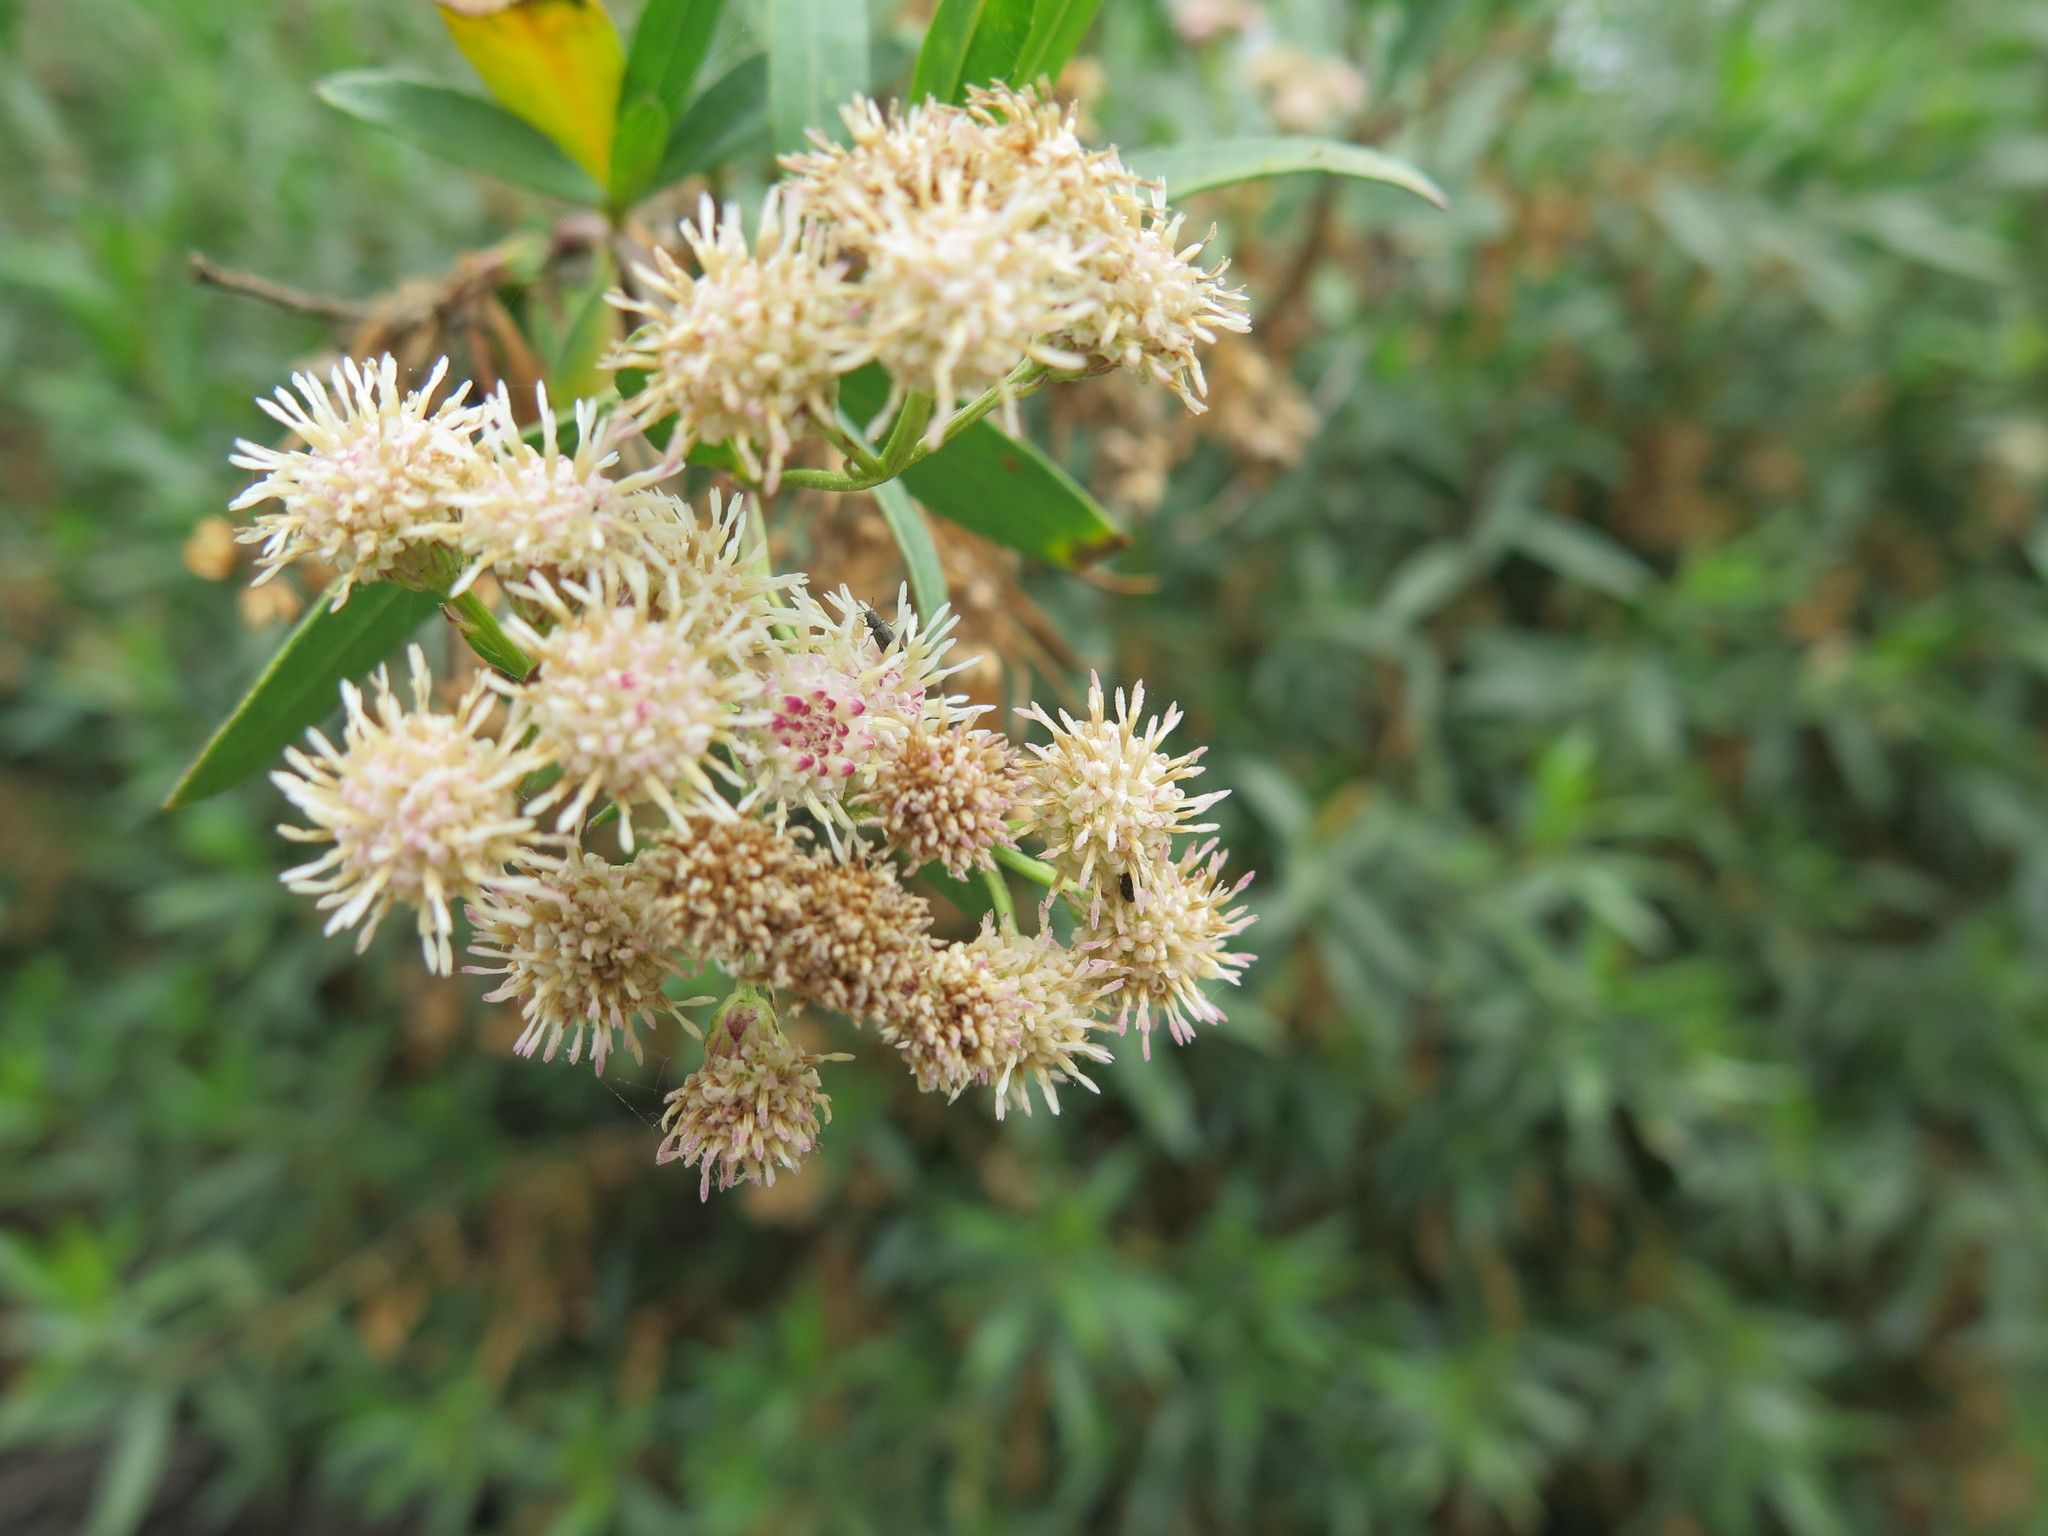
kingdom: Plantae
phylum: Tracheophyta
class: Magnoliopsida
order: Asterales
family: Asteraceae
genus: Baccharis
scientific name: Baccharis salicifolia
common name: Sticky baccharis
